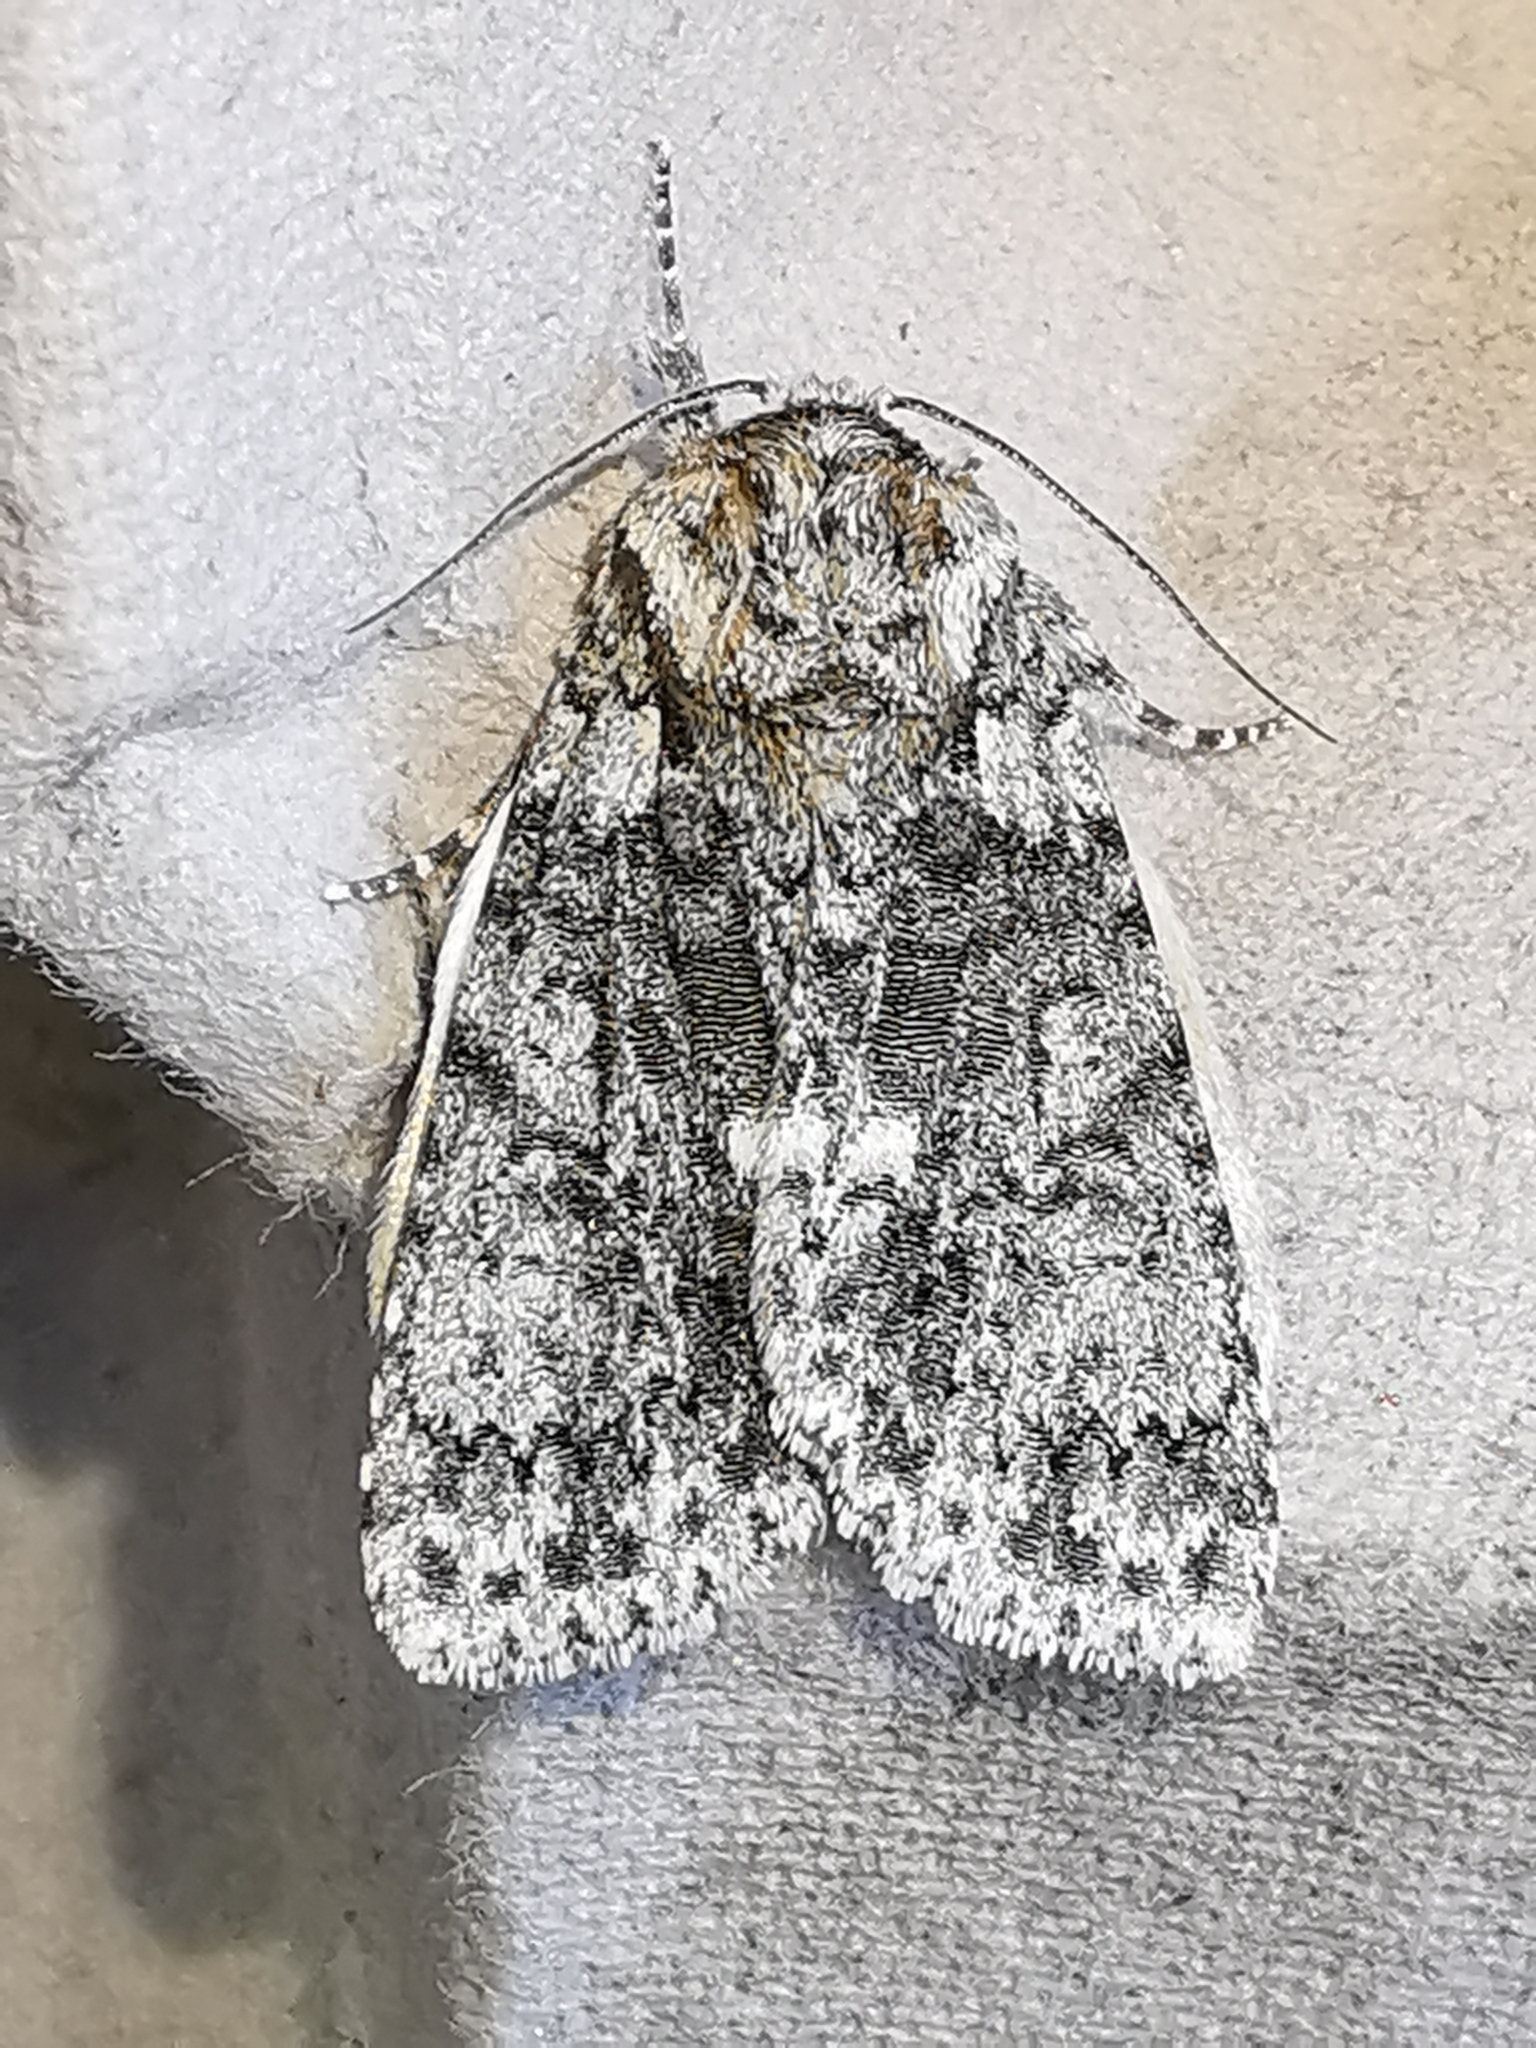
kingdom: Animalia
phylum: Arthropoda
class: Insecta
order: Lepidoptera
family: Noctuidae
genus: Acronicta
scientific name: Acronicta rumicis
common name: Knot grass
